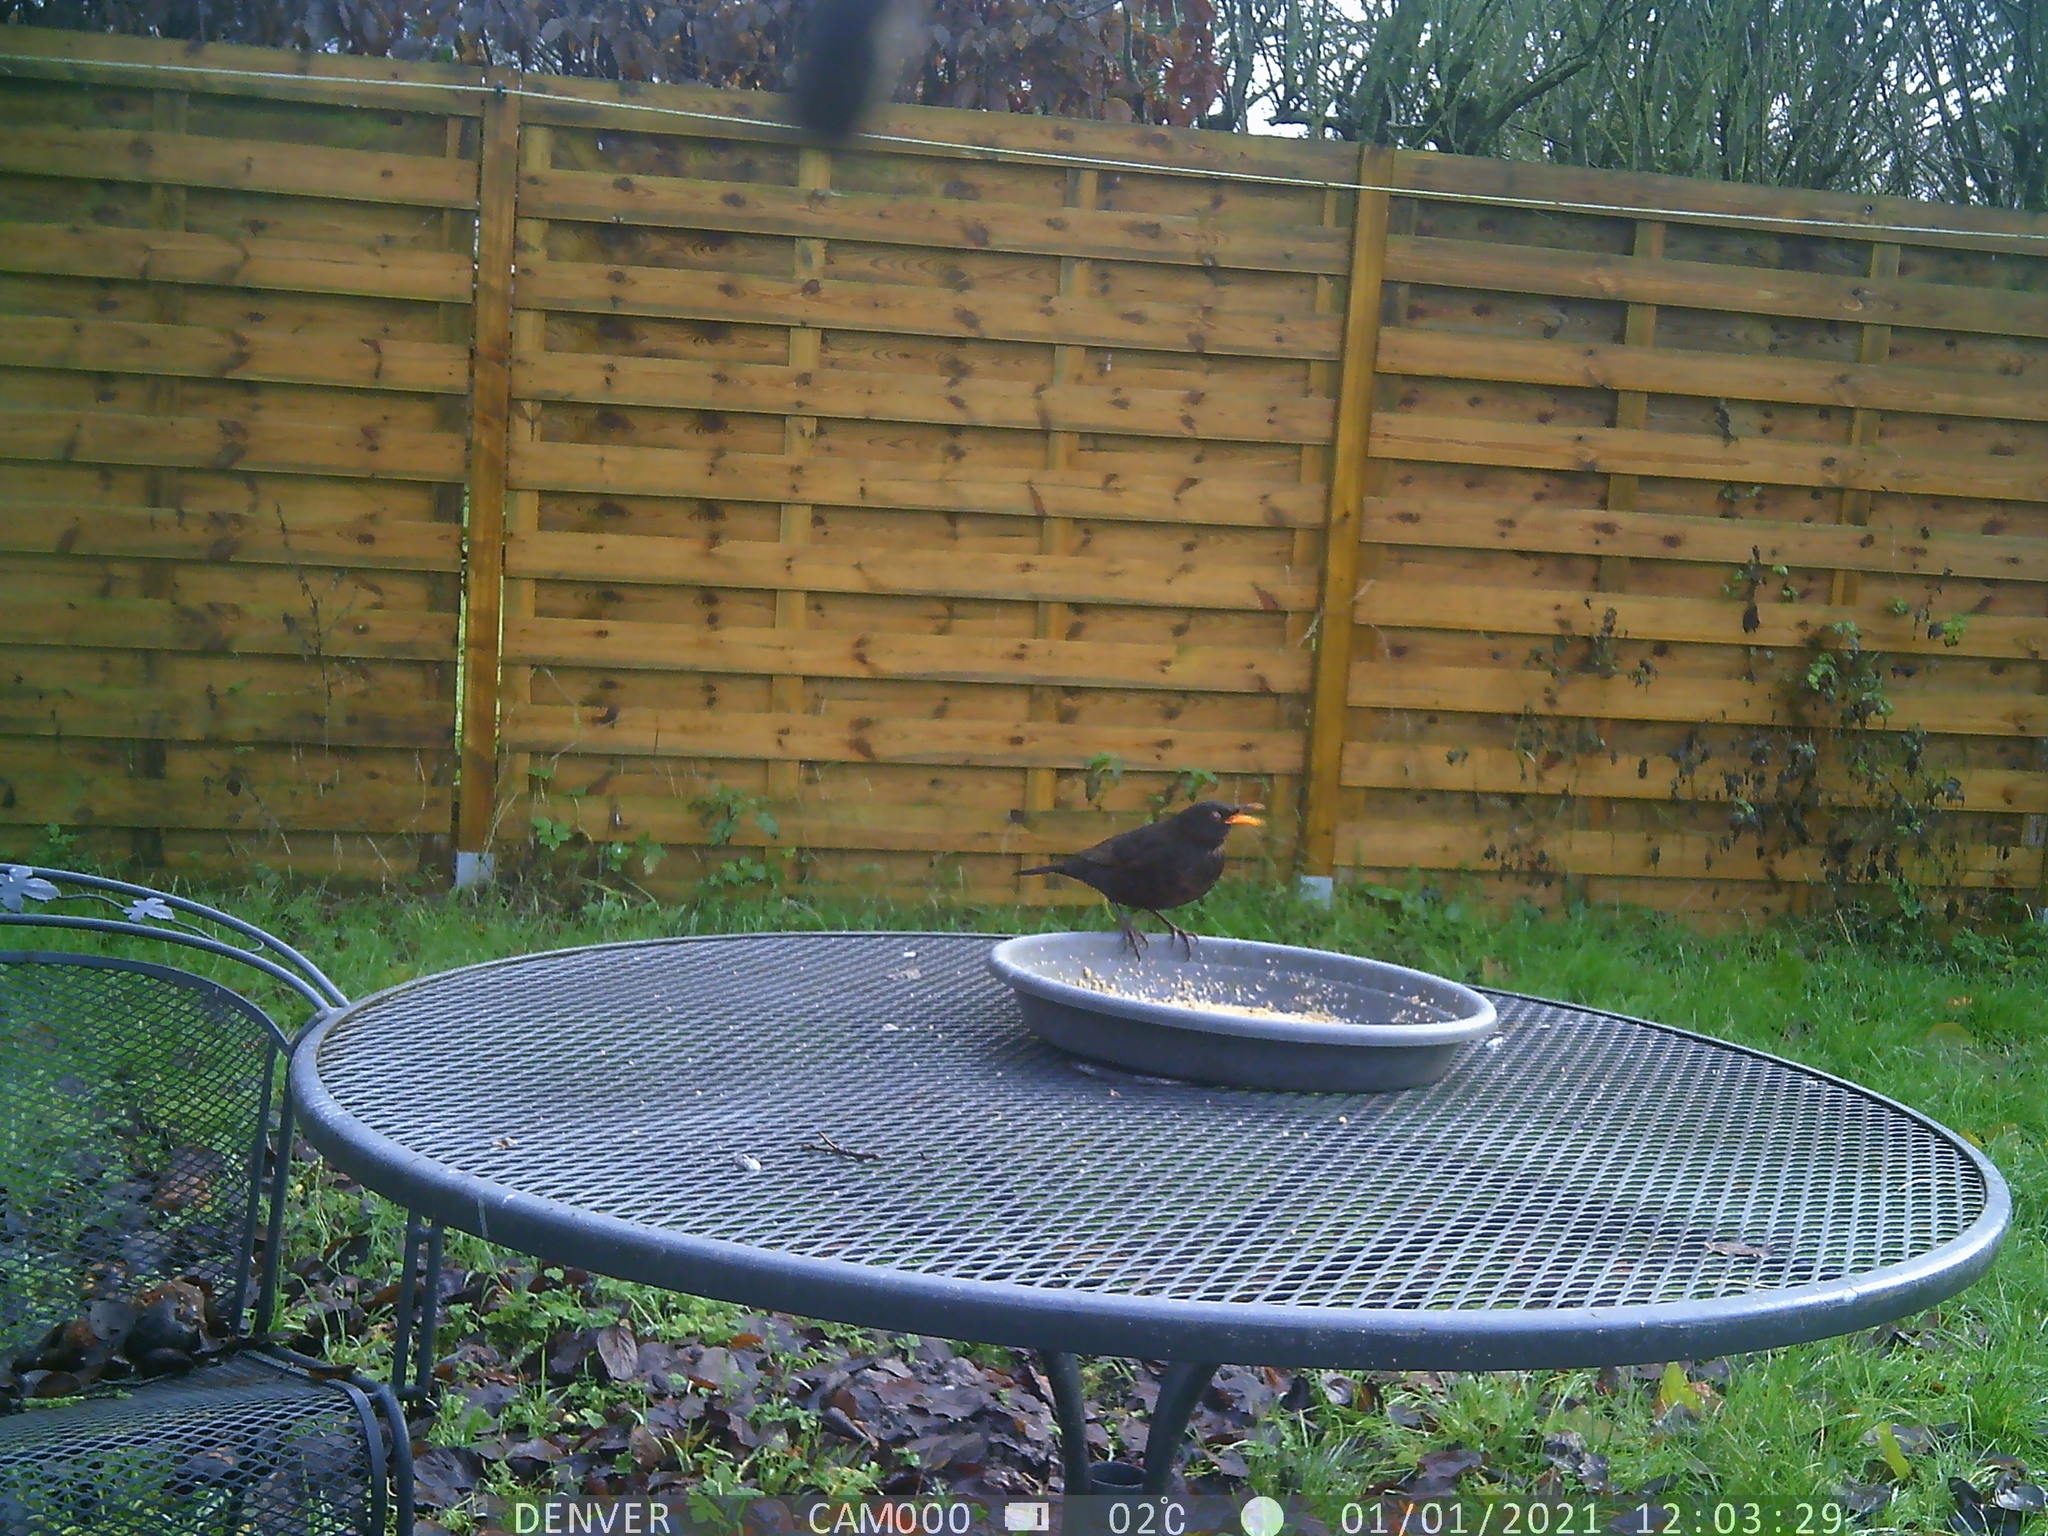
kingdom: Animalia
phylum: Chordata
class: Aves
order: Passeriformes
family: Turdidae
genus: Turdus
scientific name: Turdus merula
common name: Common blackbird
